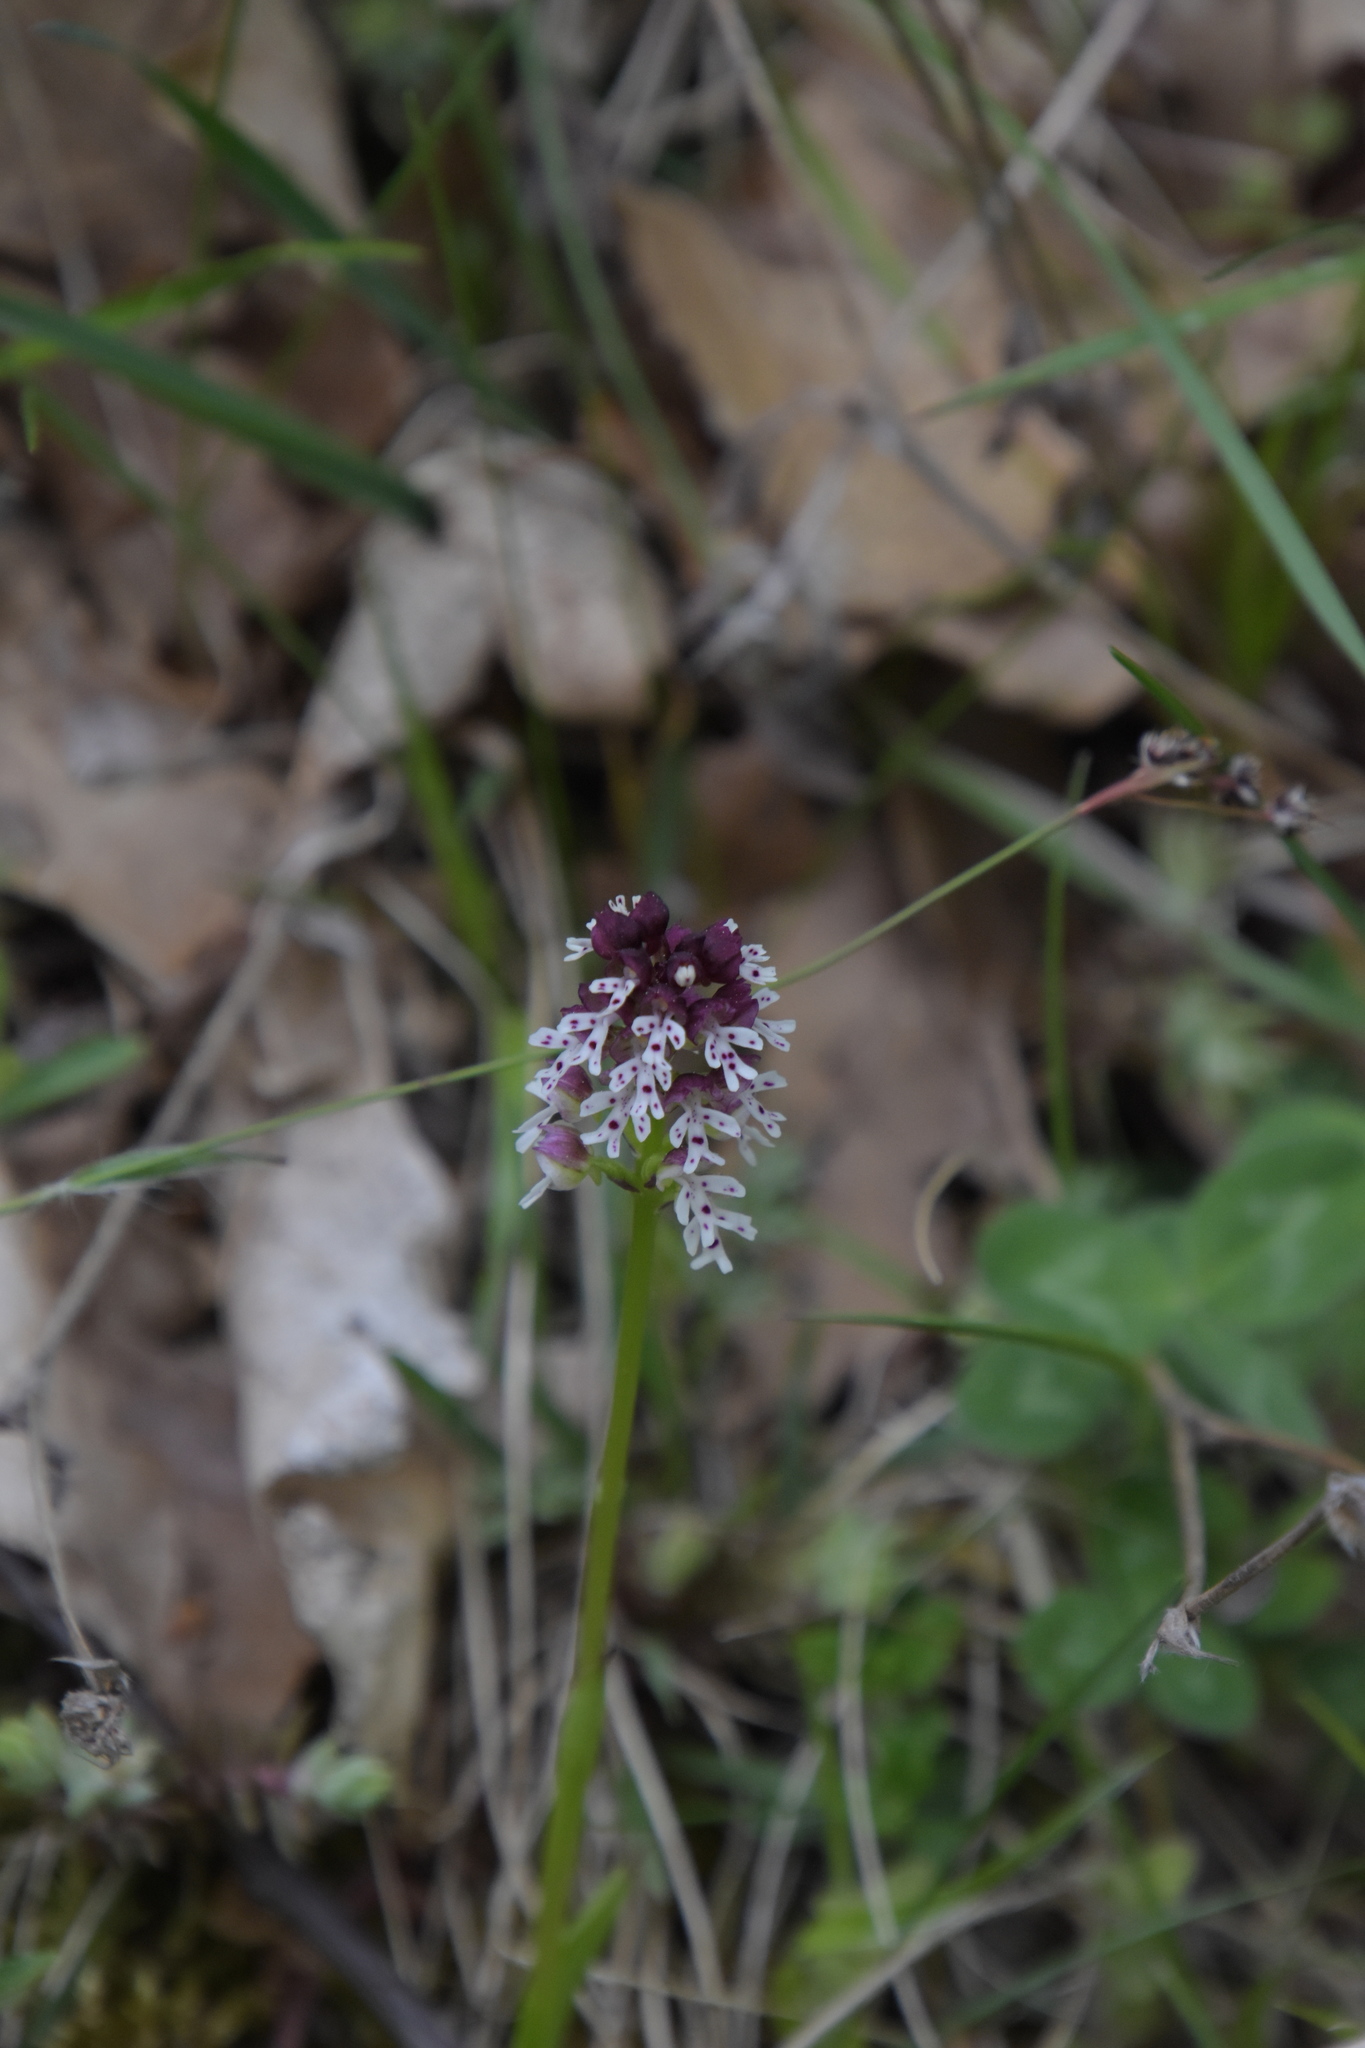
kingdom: Plantae
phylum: Tracheophyta
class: Liliopsida
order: Asparagales
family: Orchidaceae
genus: Neotinea
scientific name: Neotinea ustulata
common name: Burnt orchid
